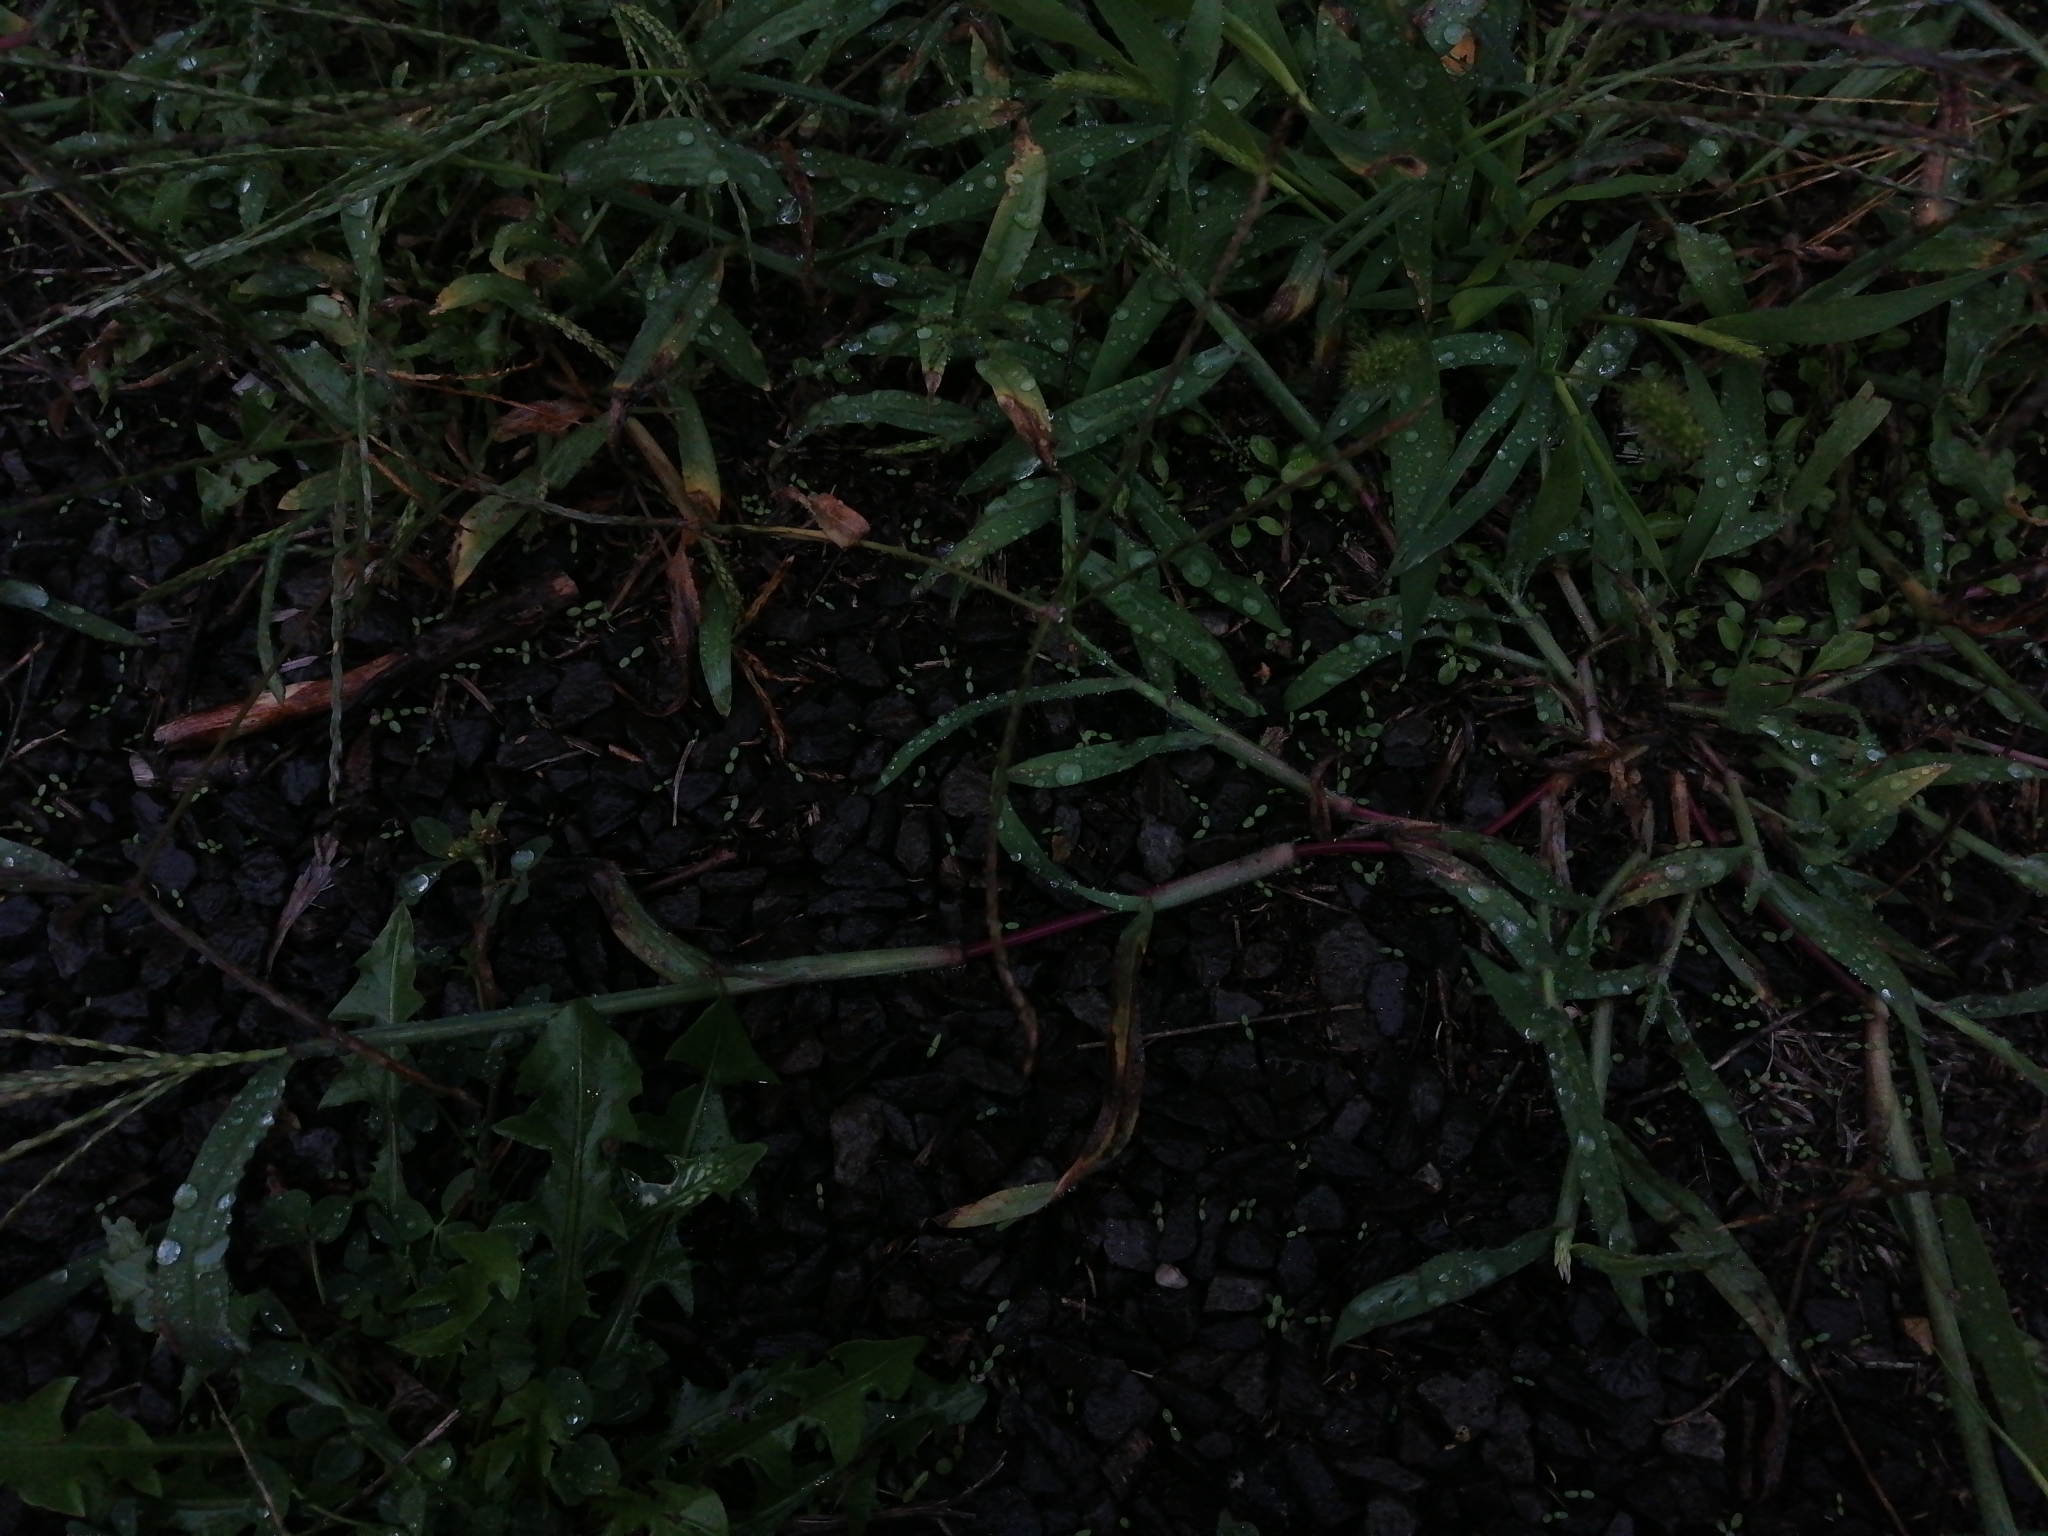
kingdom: Plantae
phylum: Tracheophyta
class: Liliopsida
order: Poales
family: Poaceae
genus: Digitaria
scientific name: Digitaria sanguinalis
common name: Hairy crabgrass
